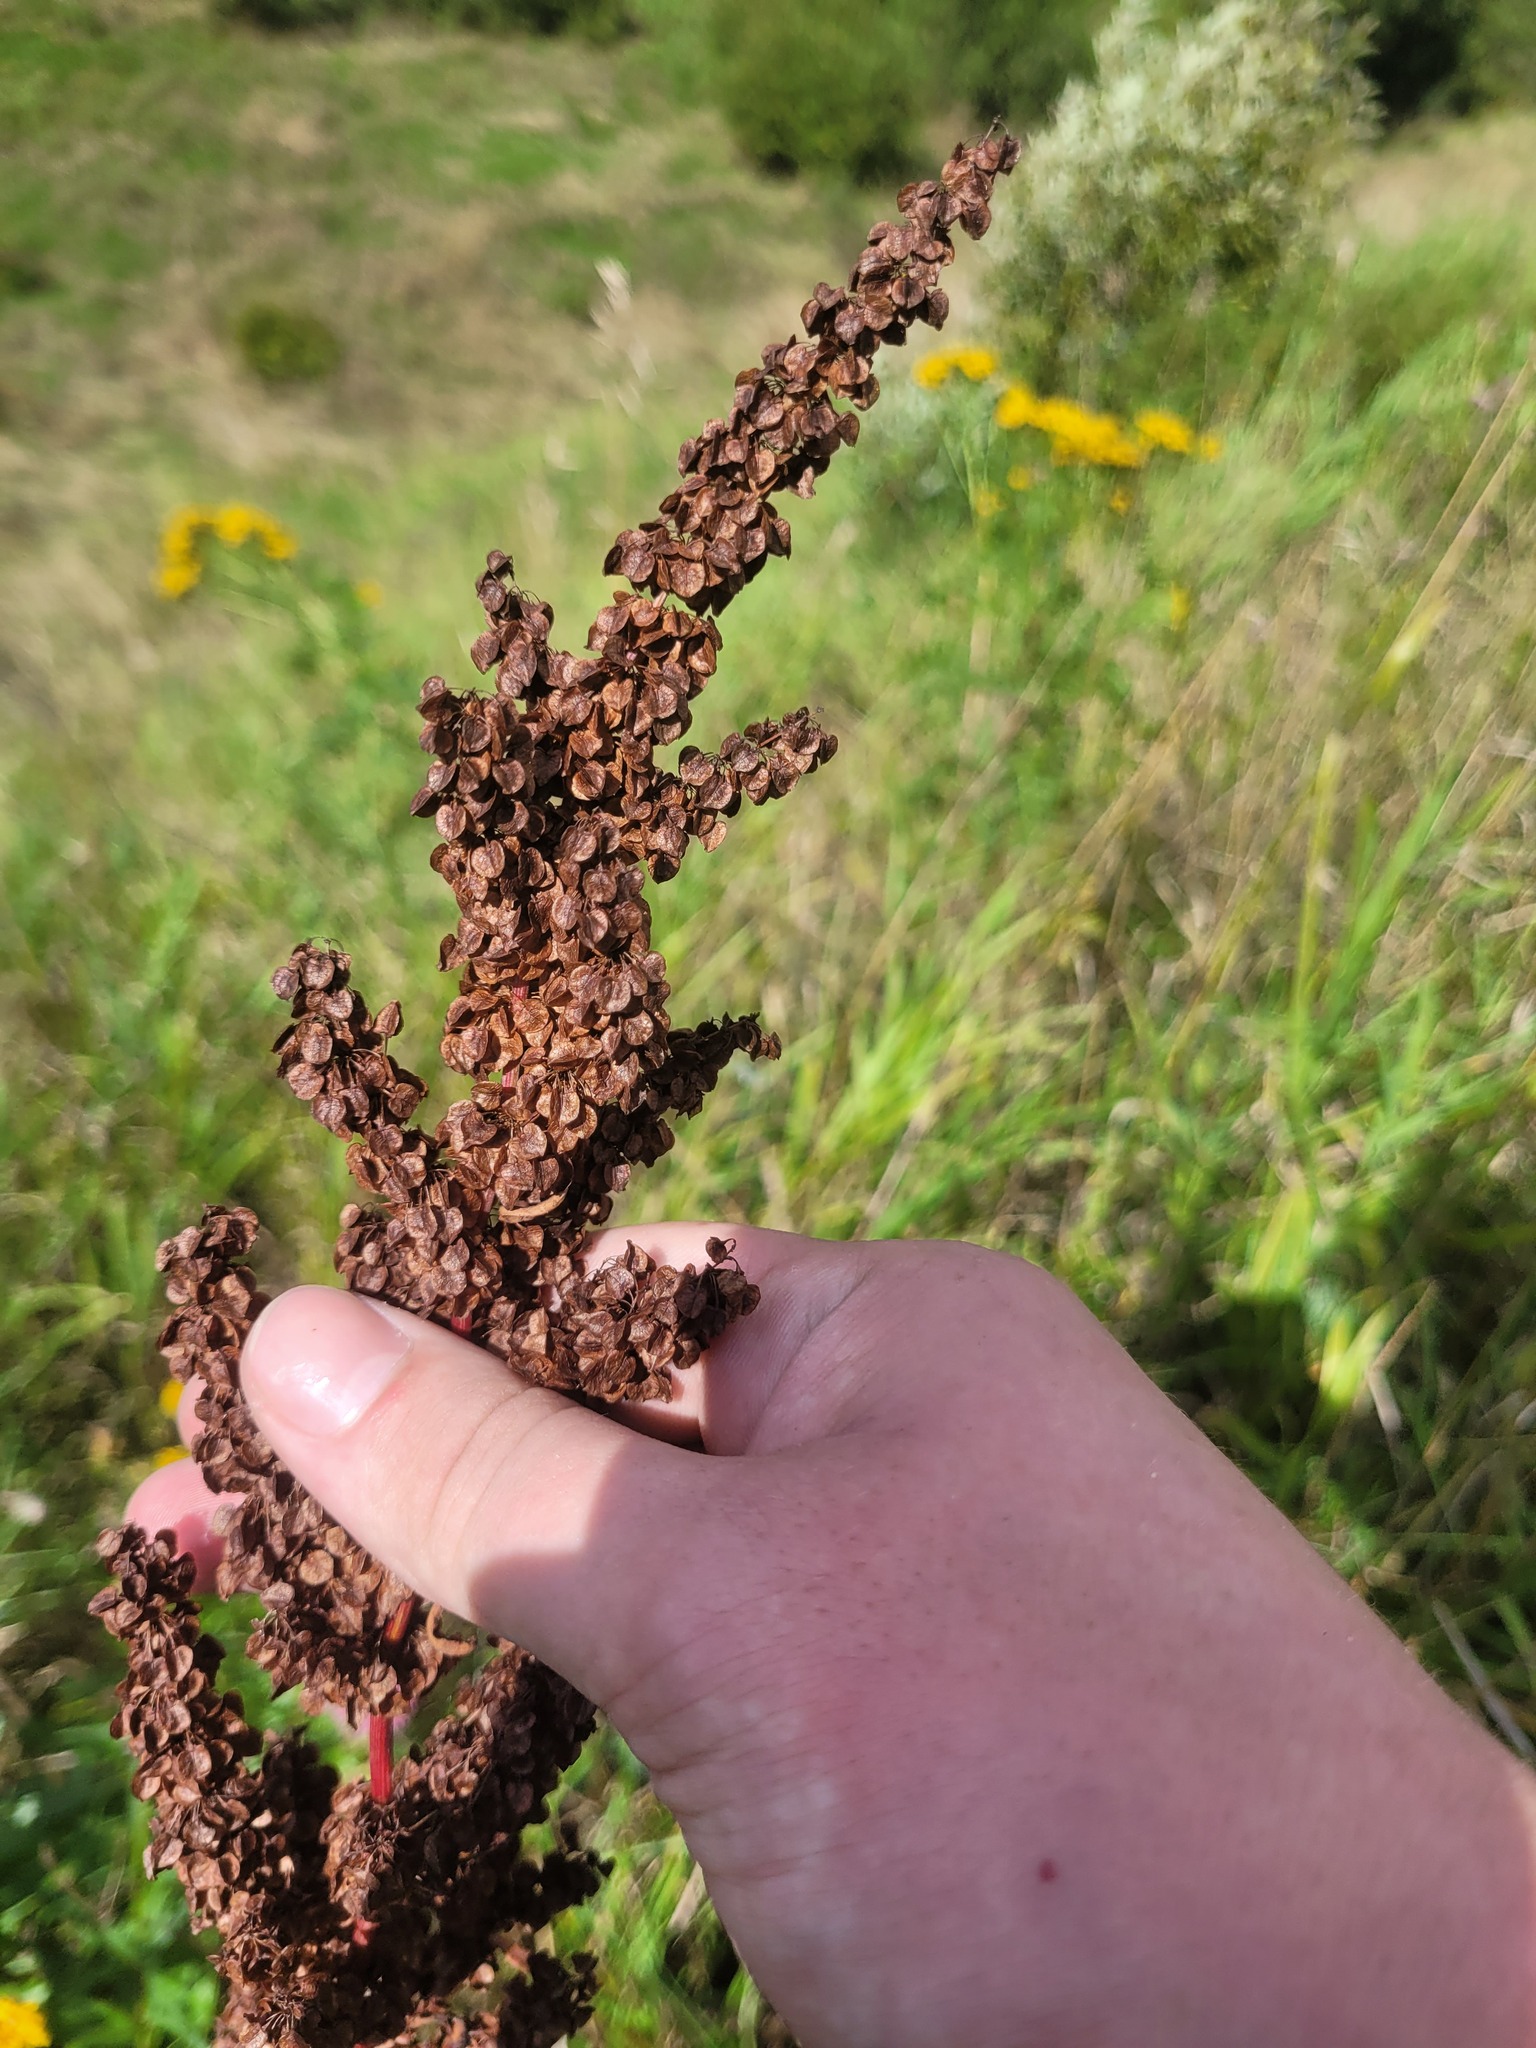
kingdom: Plantae
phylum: Tracheophyta
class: Magnoliopsida
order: Caryophyllales
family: Polygonaceae
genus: Rumex
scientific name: Rumex pseudonatronatus
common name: Field dock
